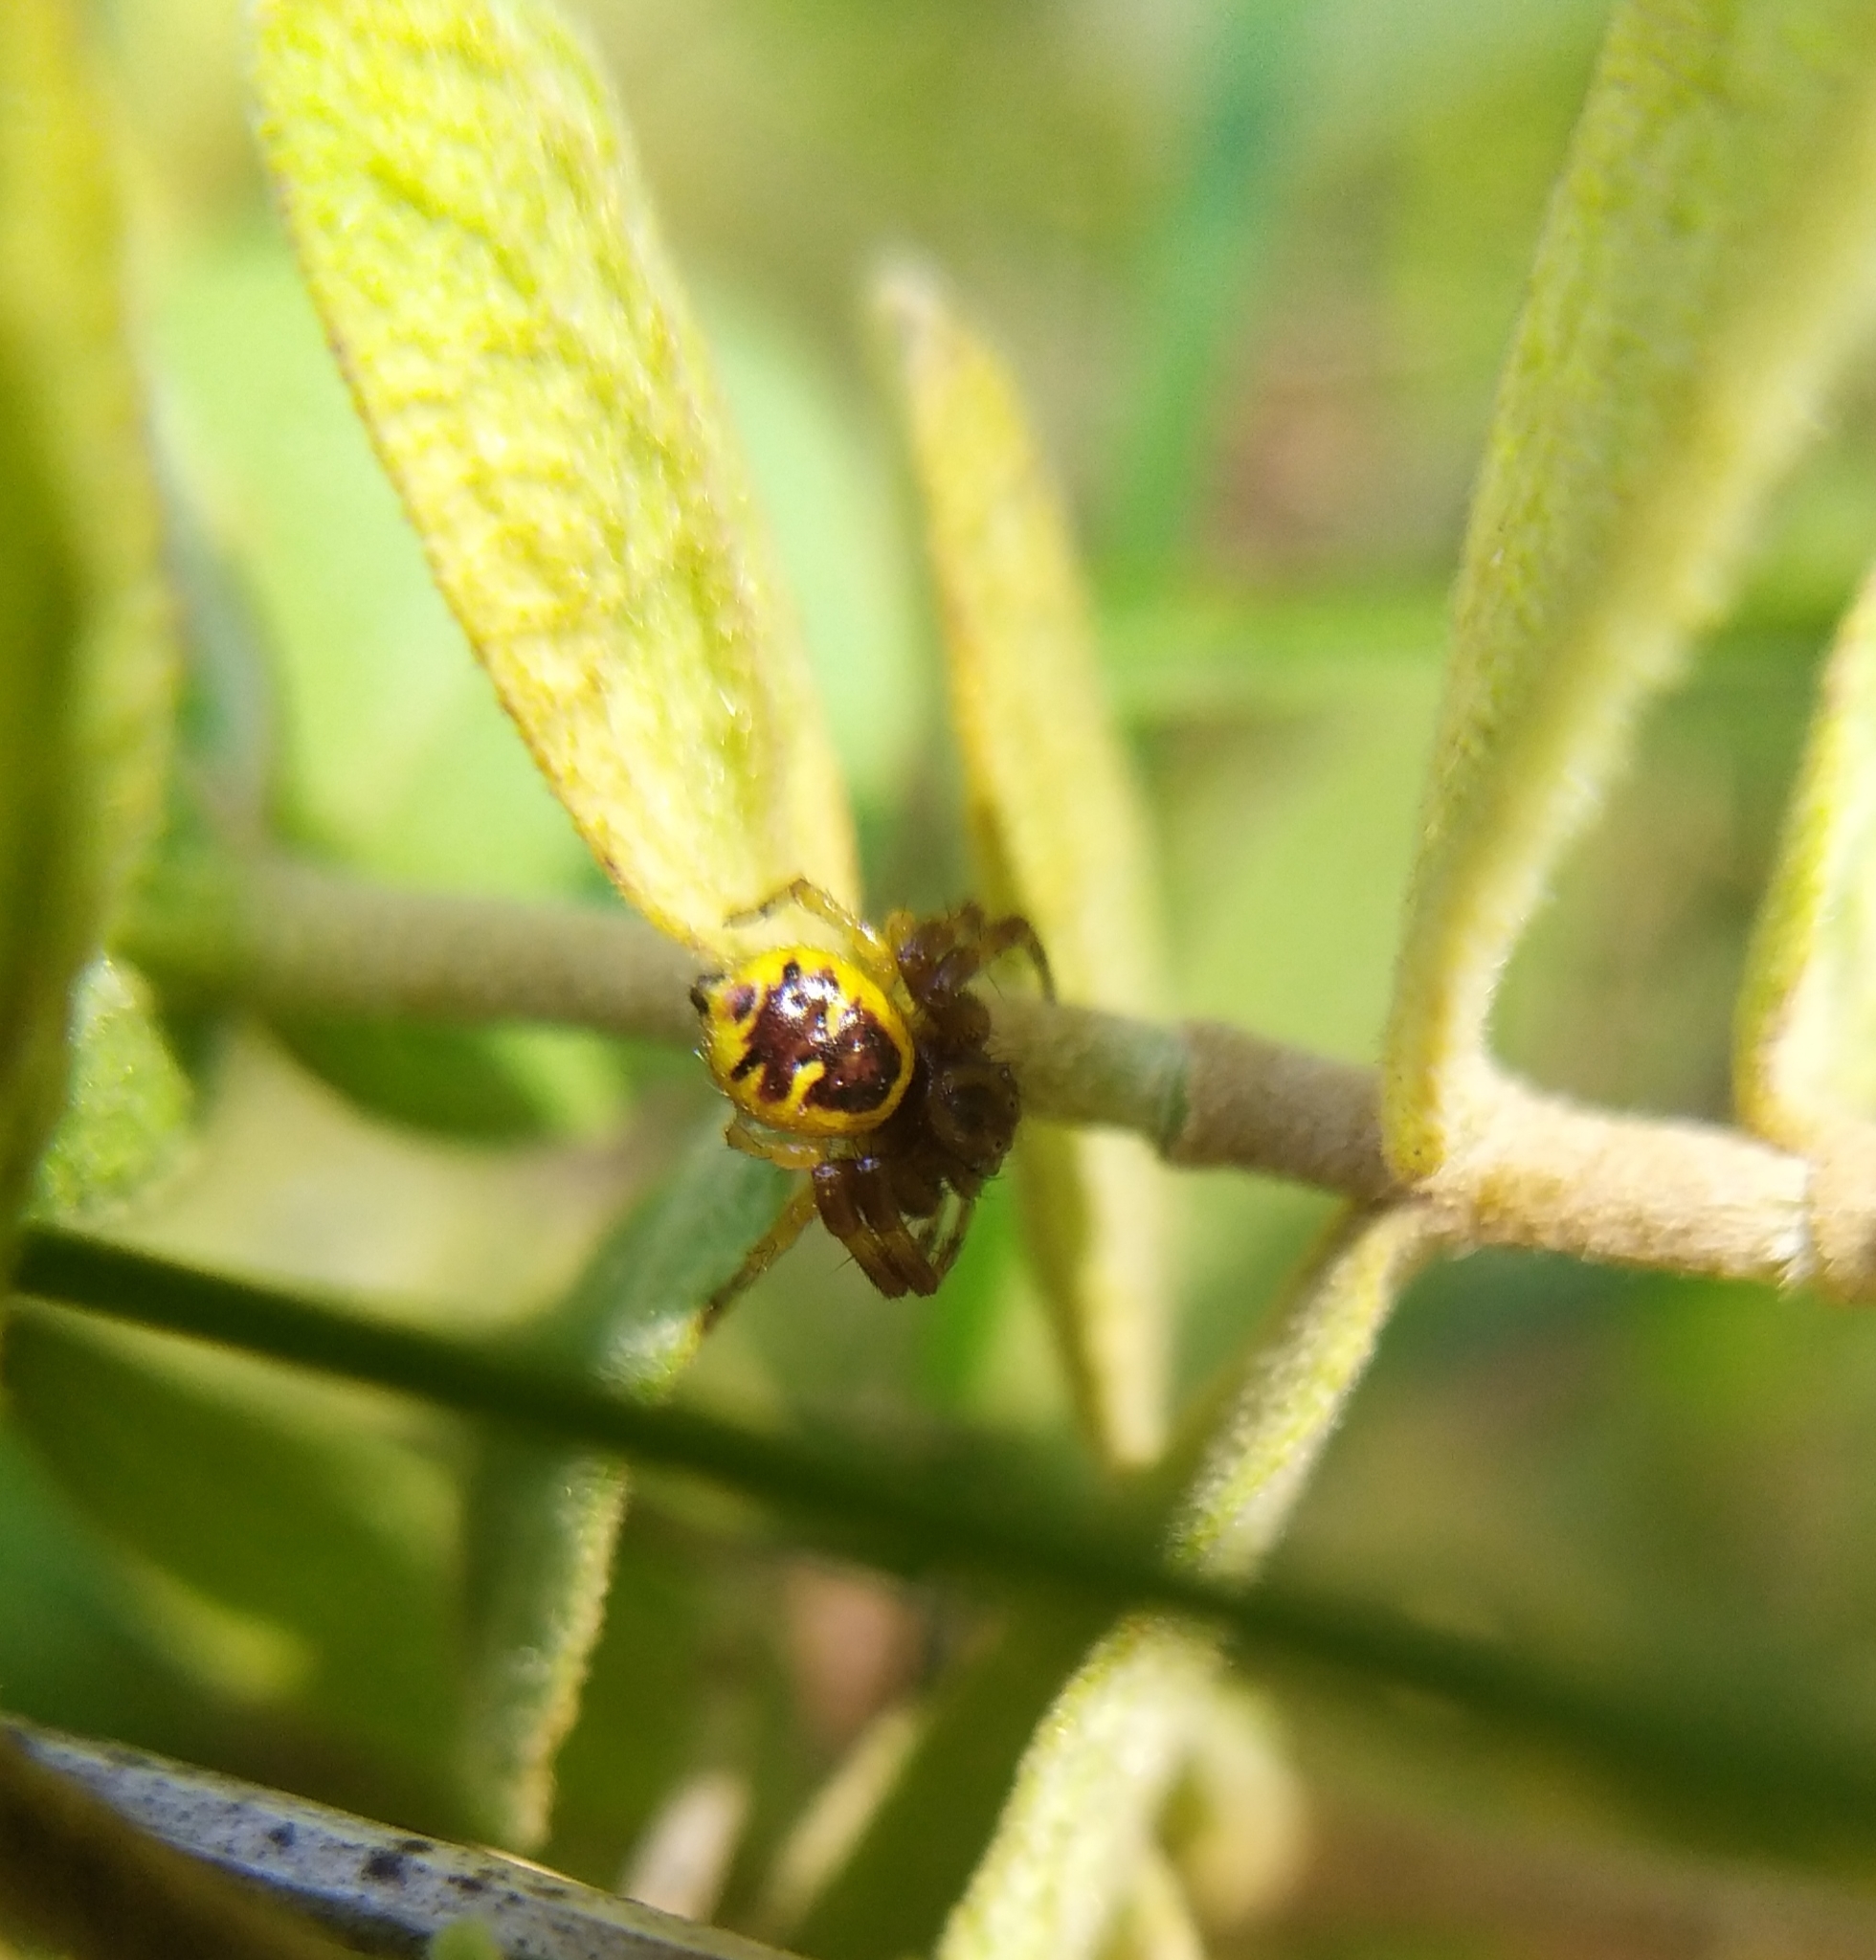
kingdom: Animalia
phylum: Arthropoda
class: Arachnida
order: Araneae
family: Thomisidae
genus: Synema
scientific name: Synema globosum
